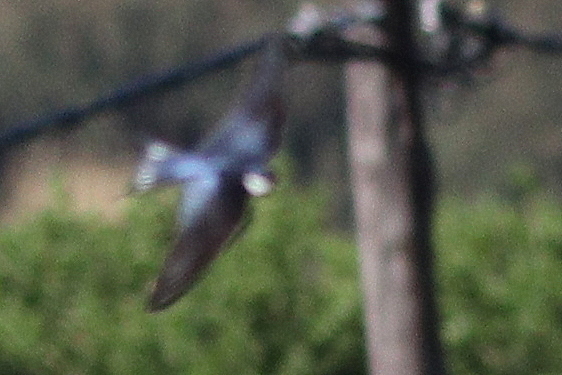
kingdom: Animalia
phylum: Chordata
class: Aves
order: Passeriformes
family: Hirundinidae
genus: Hirundo
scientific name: Hirundo albigularis
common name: White-throated swallow
